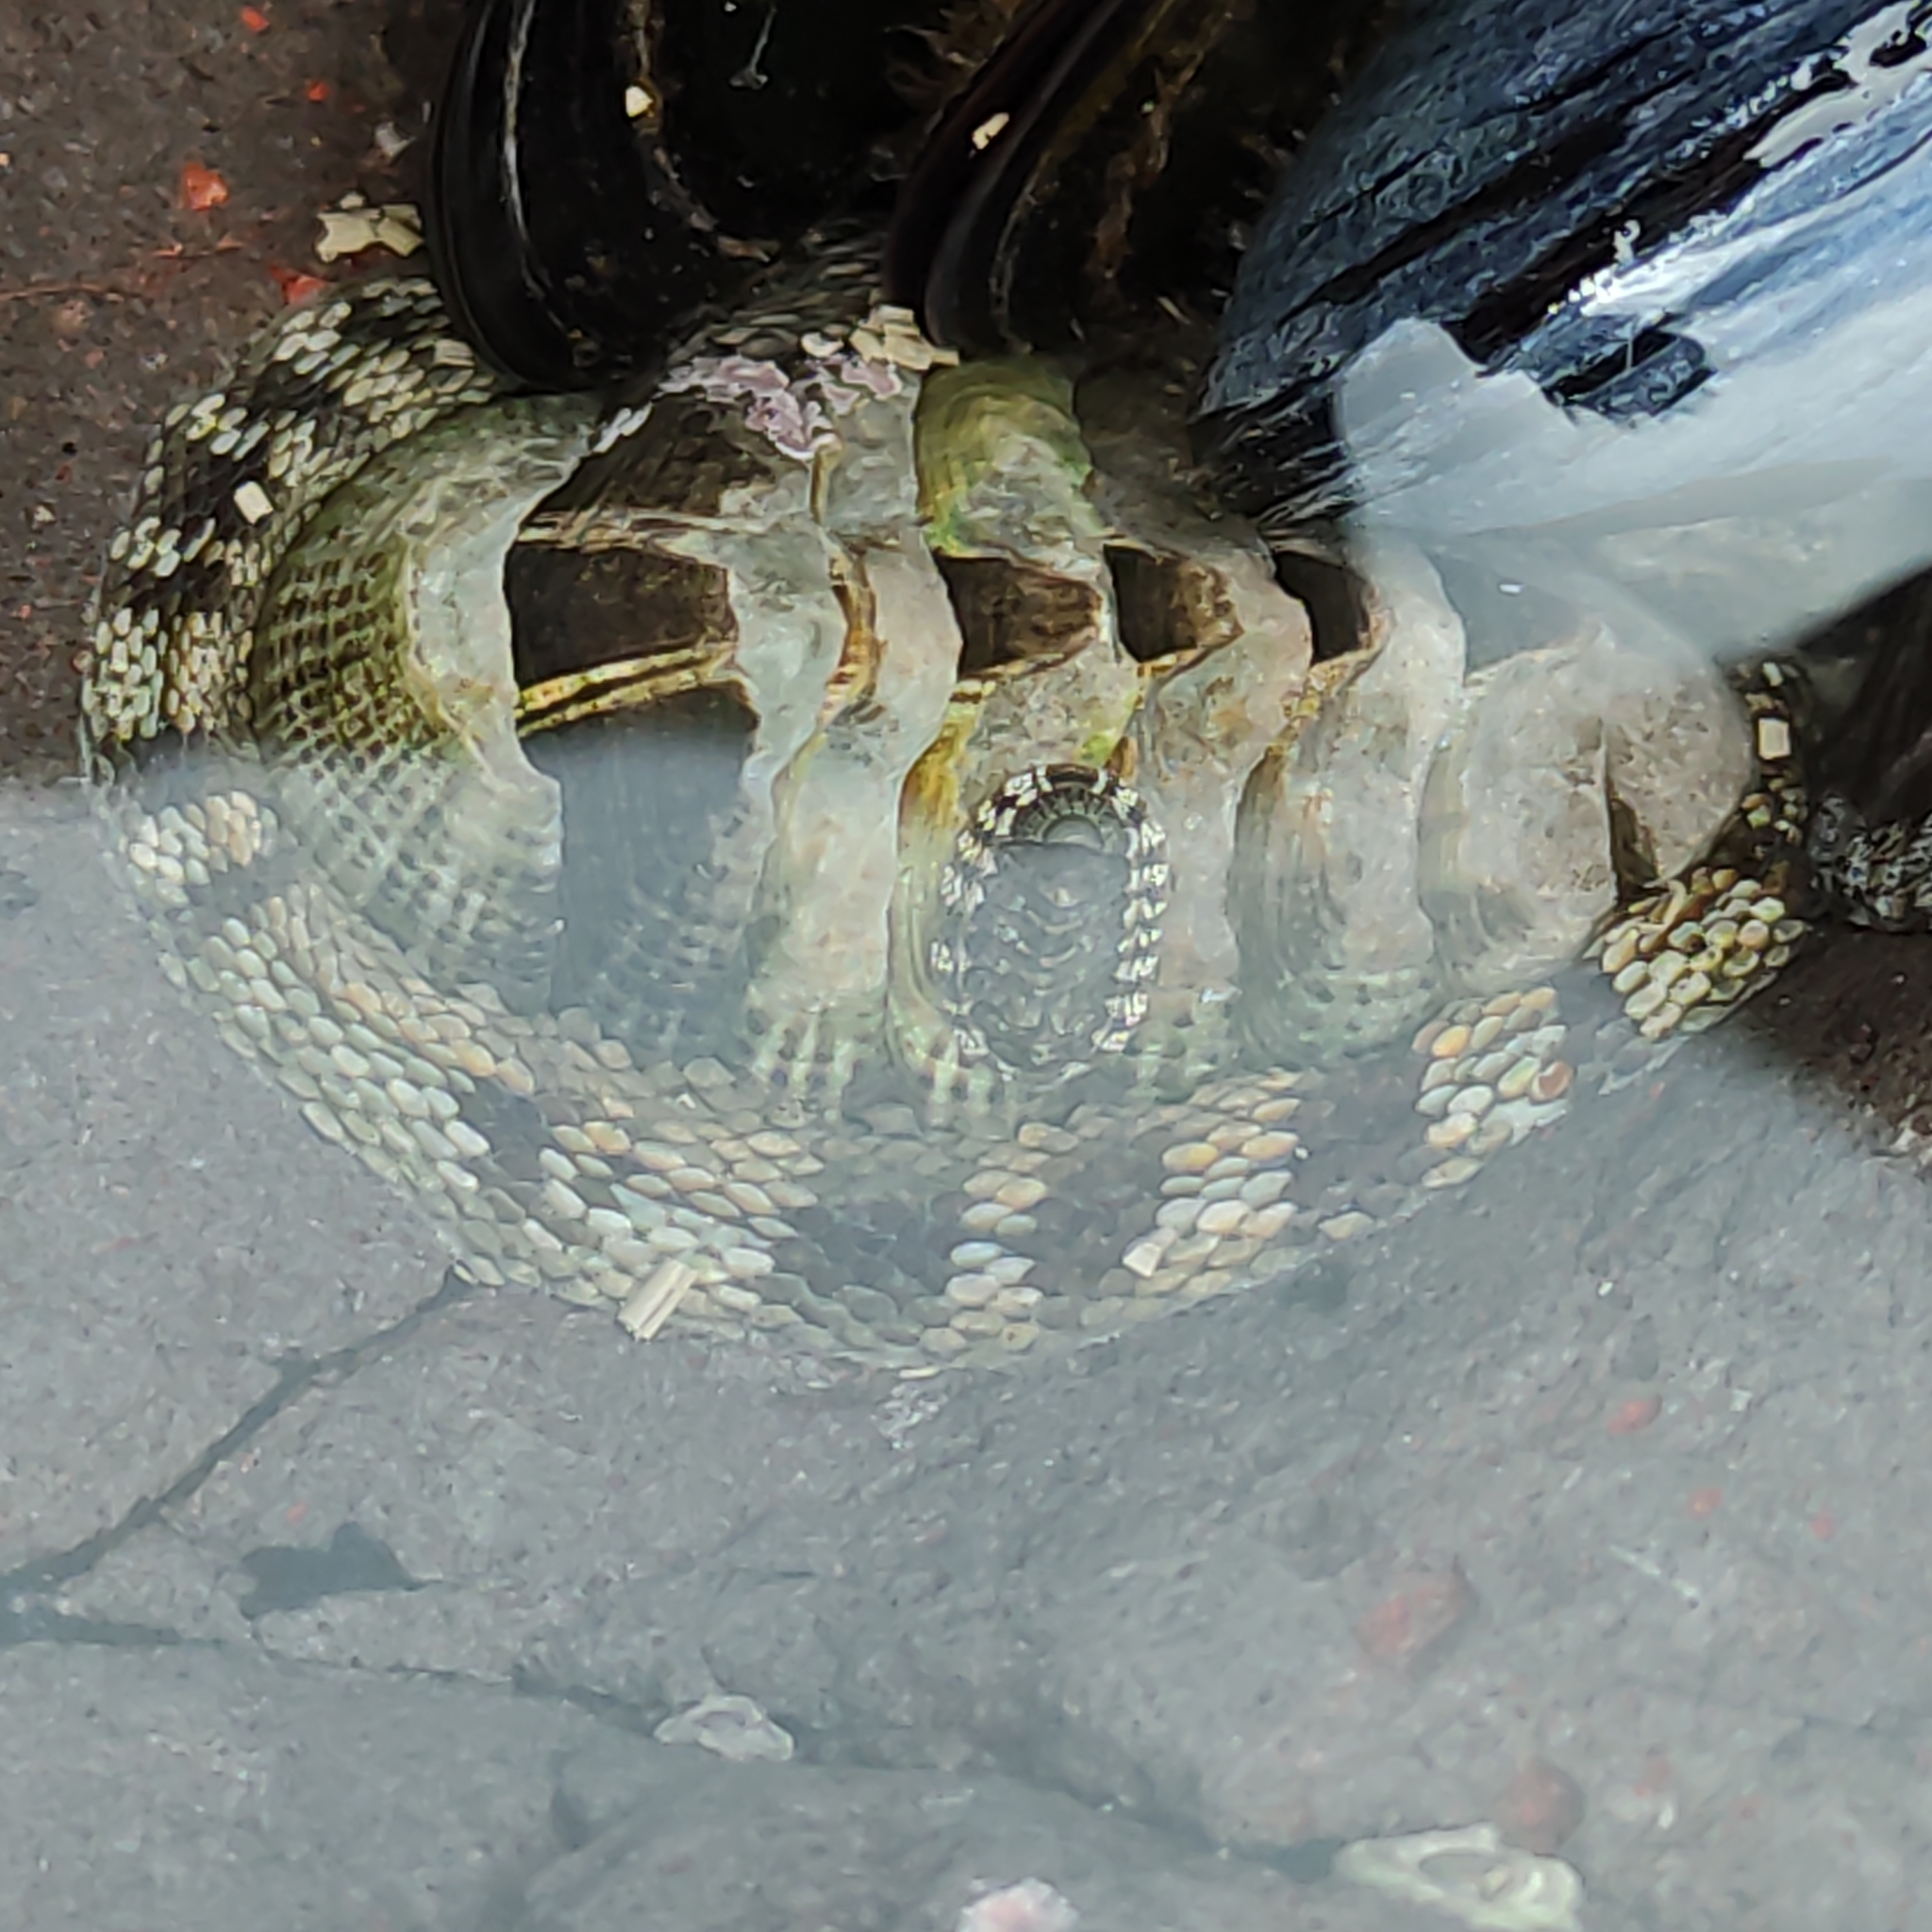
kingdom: Animalia
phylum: Mollusca
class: Polyplacophora
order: Chitonida
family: Chitonidae
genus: Sypharochiton
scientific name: Sypharochiton pelliserpentis
